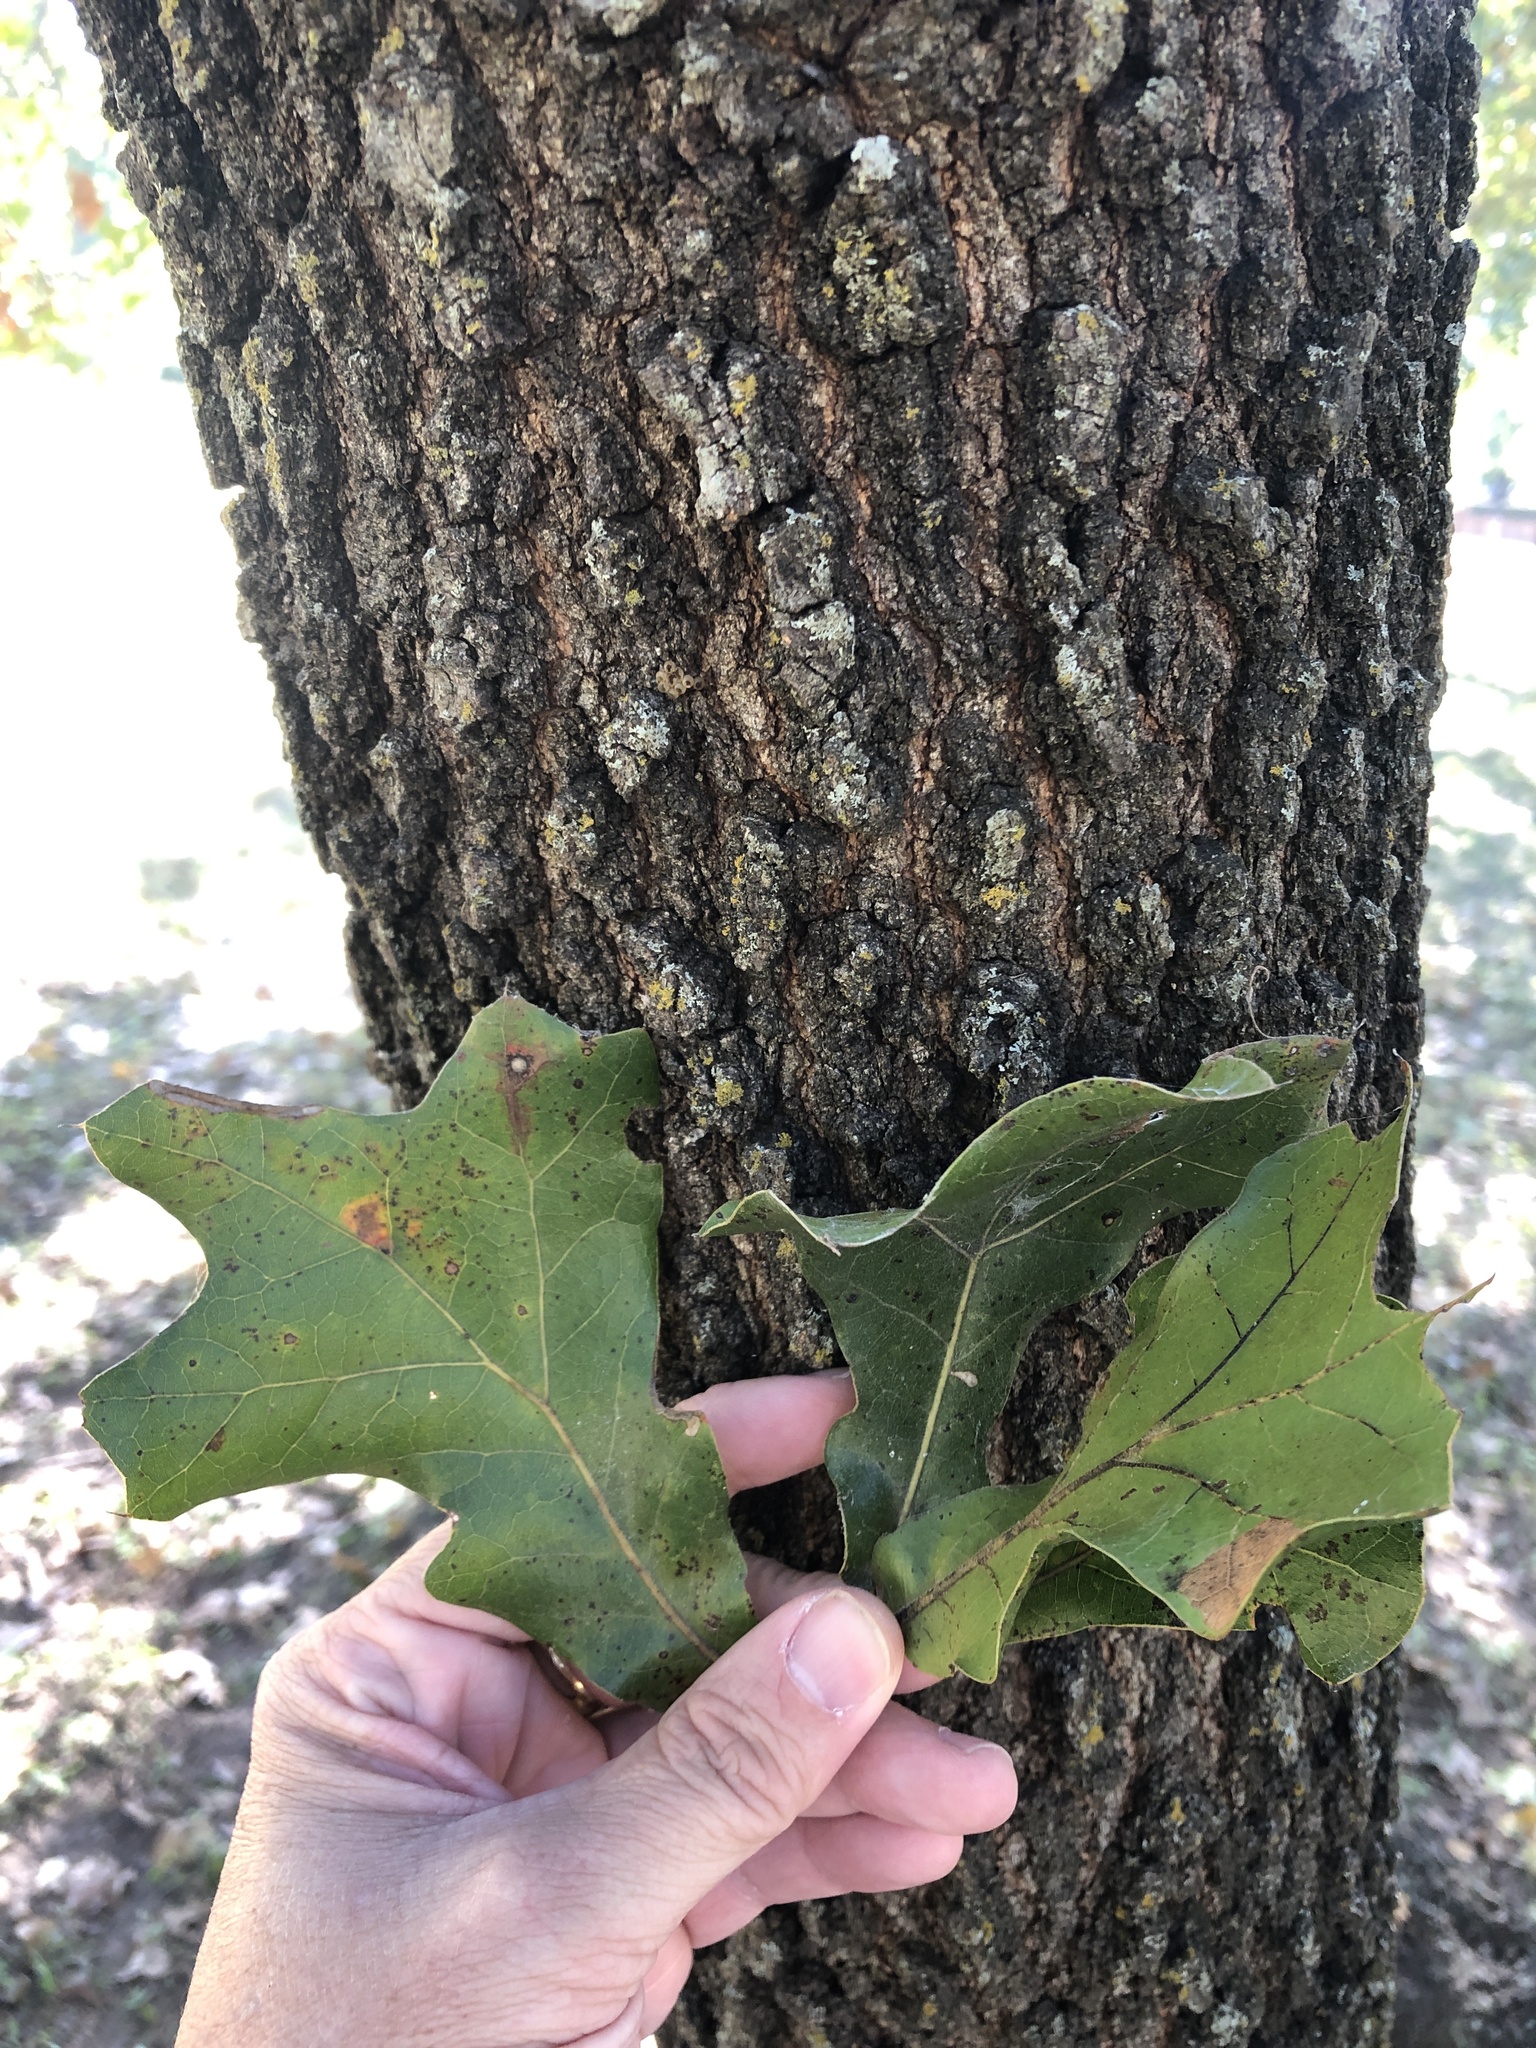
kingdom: Plantae
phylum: Tracheophyta
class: Magnoliopsida
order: Fagales
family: Fagaceae
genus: Quercus
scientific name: Quercus marilandica
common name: Blackjack oak
